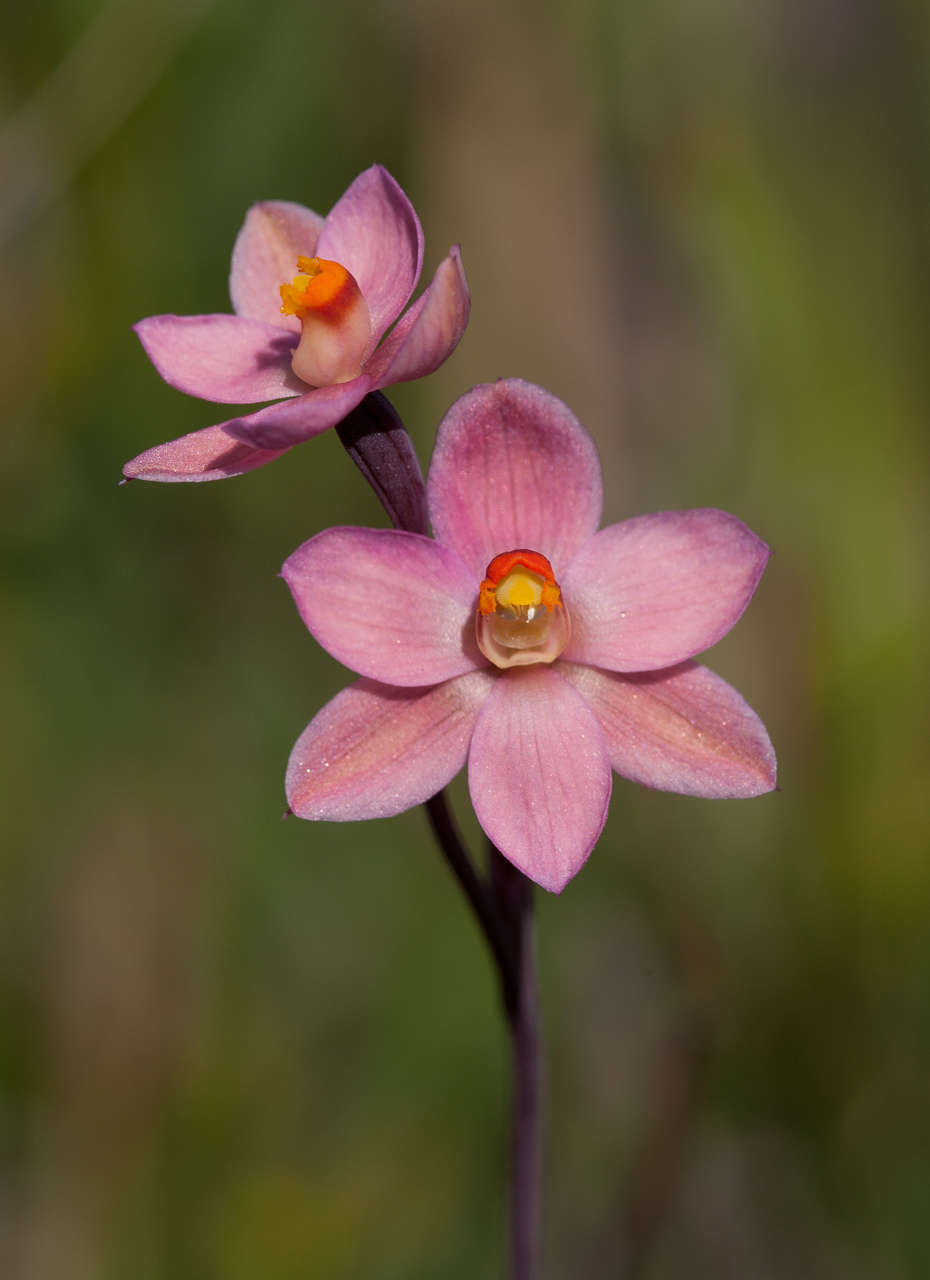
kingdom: Plantae
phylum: Tracheophyta
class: Liliopsida
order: Asparagales
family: Orchidaceae
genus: Thelymitra
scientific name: Thelymitra rubra
